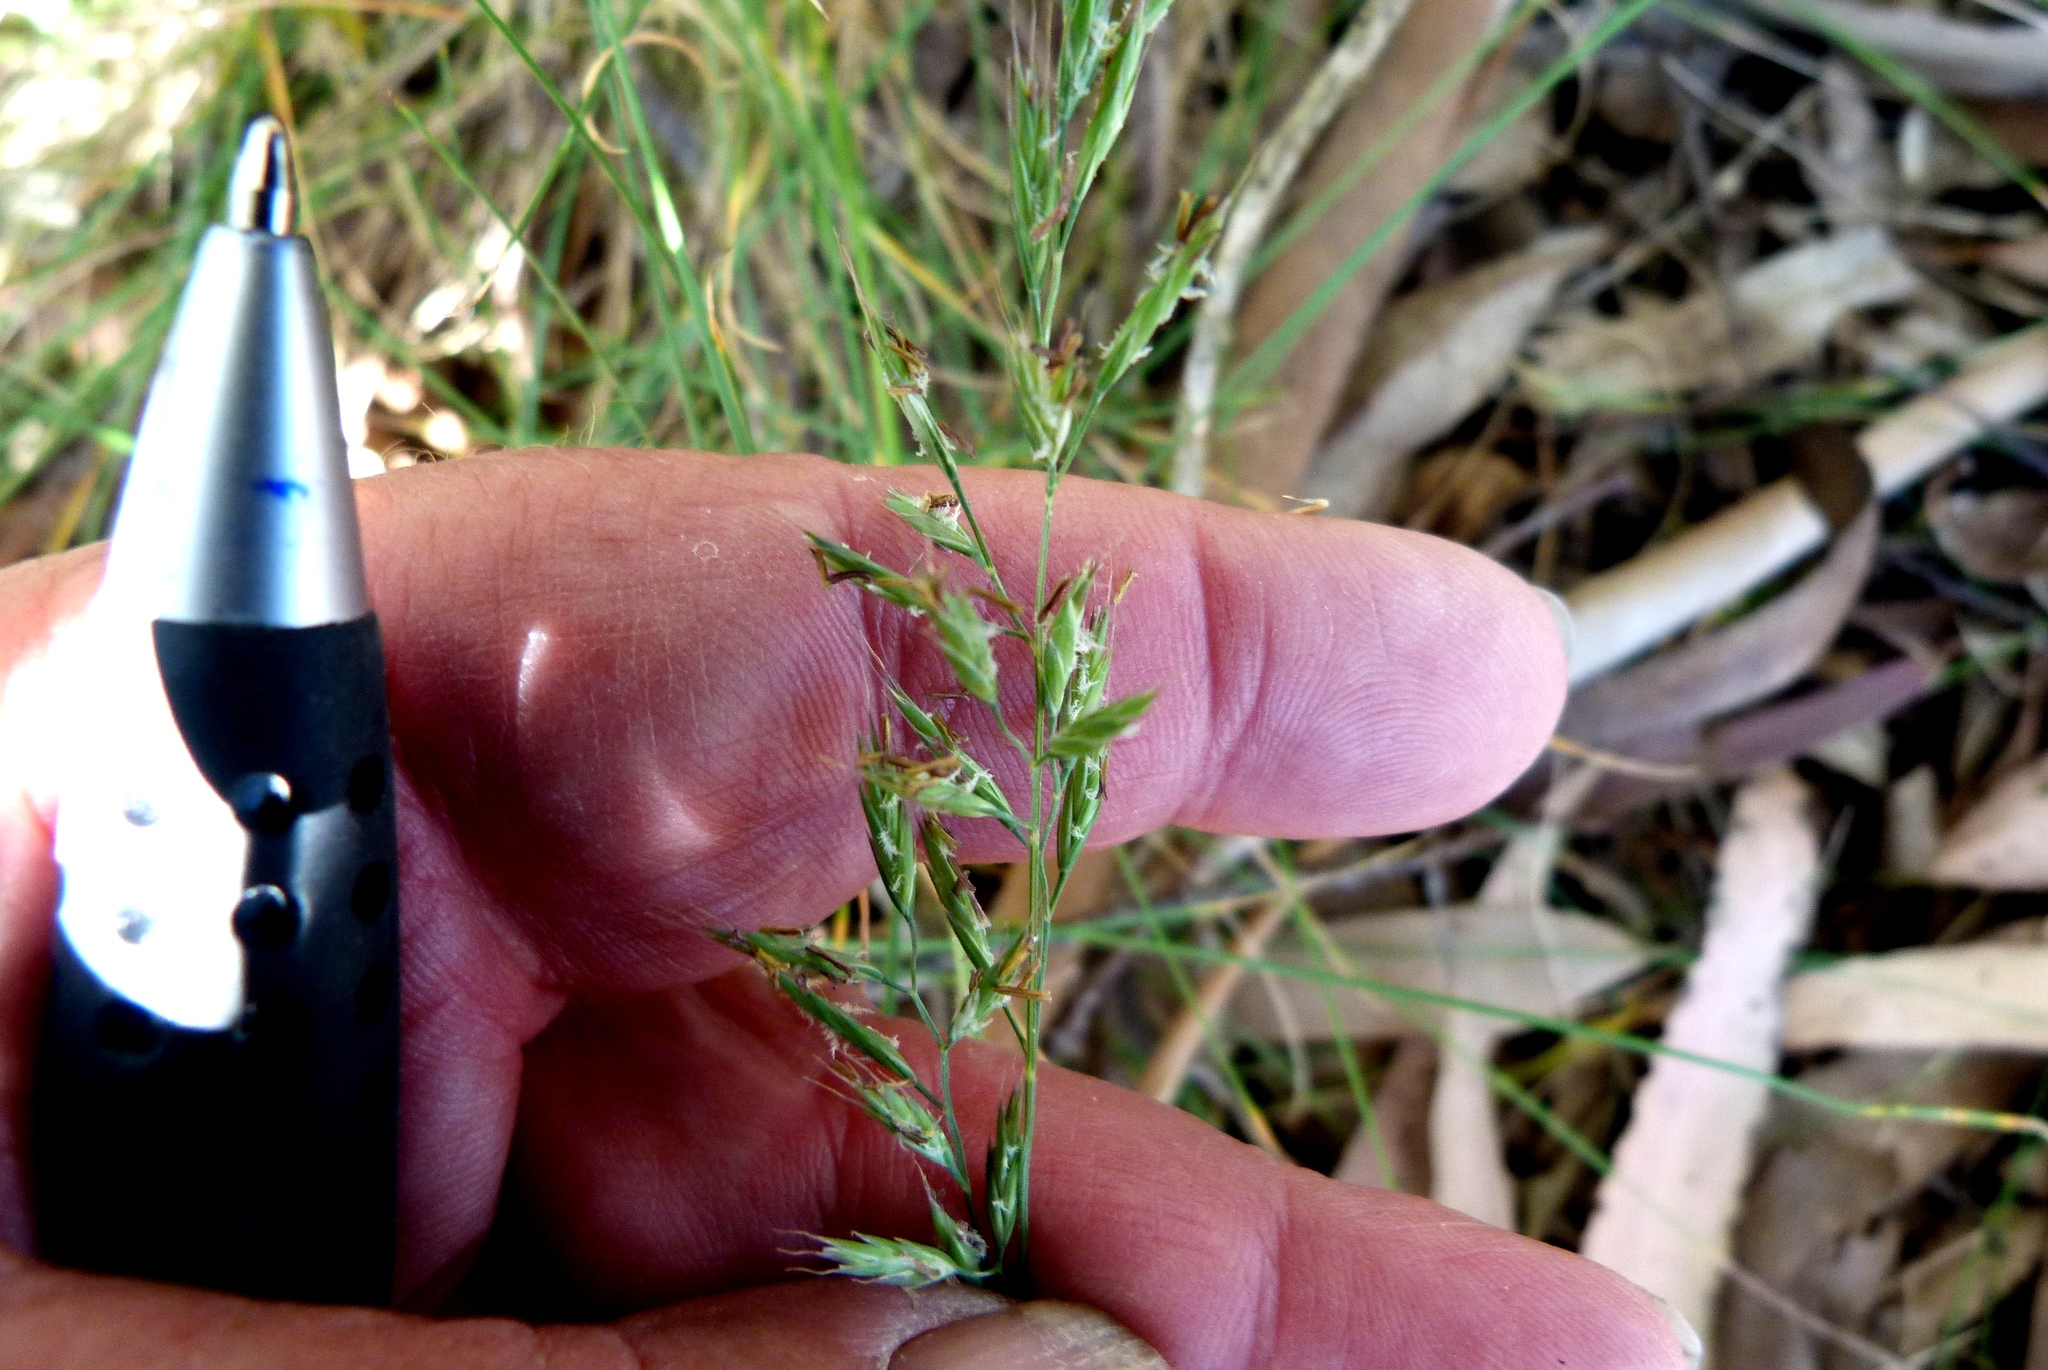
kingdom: Plantae
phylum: Tracheophyta
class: Liliopsida
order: Poales
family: Poaceae
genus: Festuca
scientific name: Festuca rubra
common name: Red fescue
